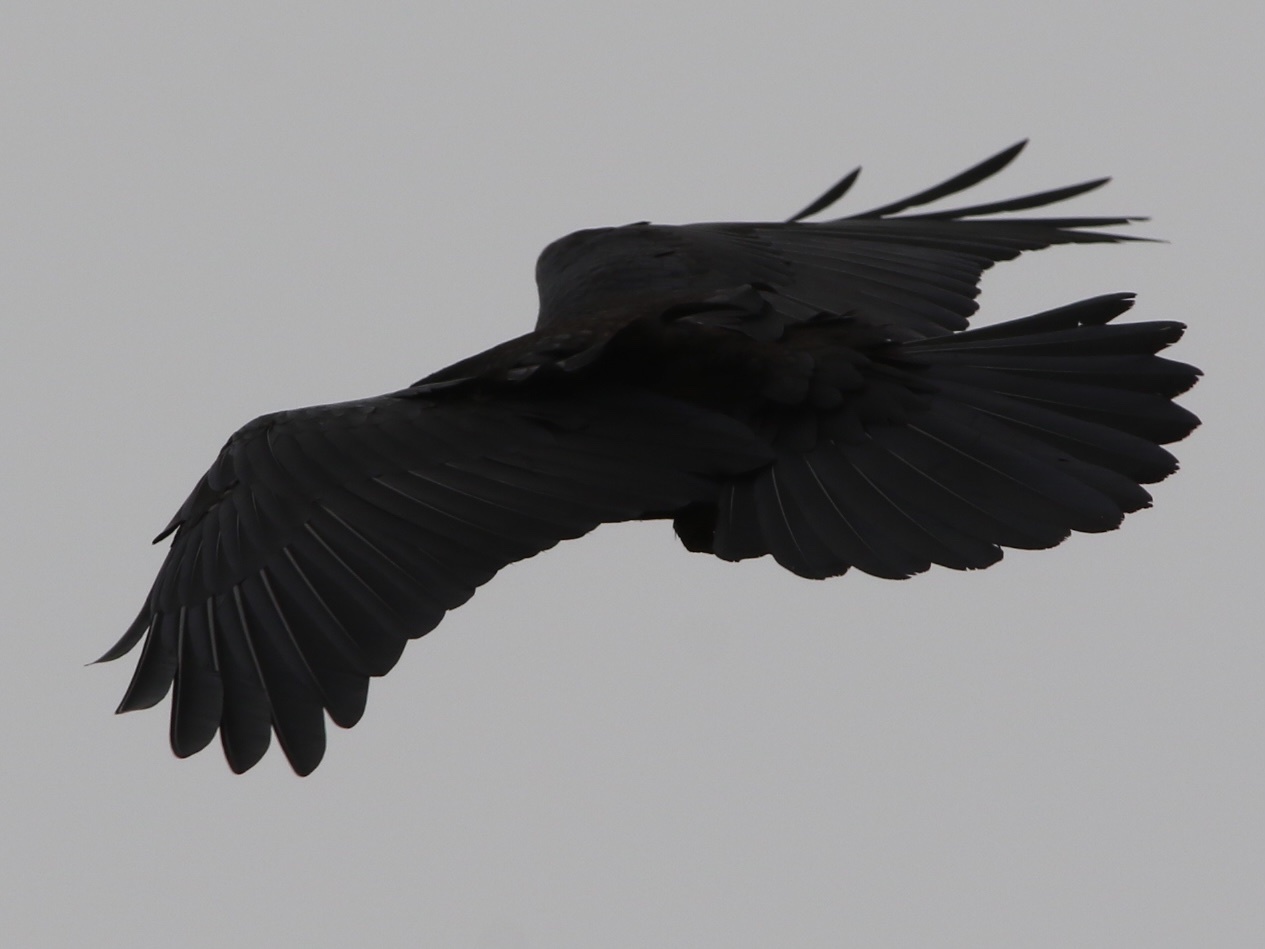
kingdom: Animalia
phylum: Chordata
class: Aves
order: Passeriformes
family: Corvidae
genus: Corvus
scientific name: Corvus corax
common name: Common raven
